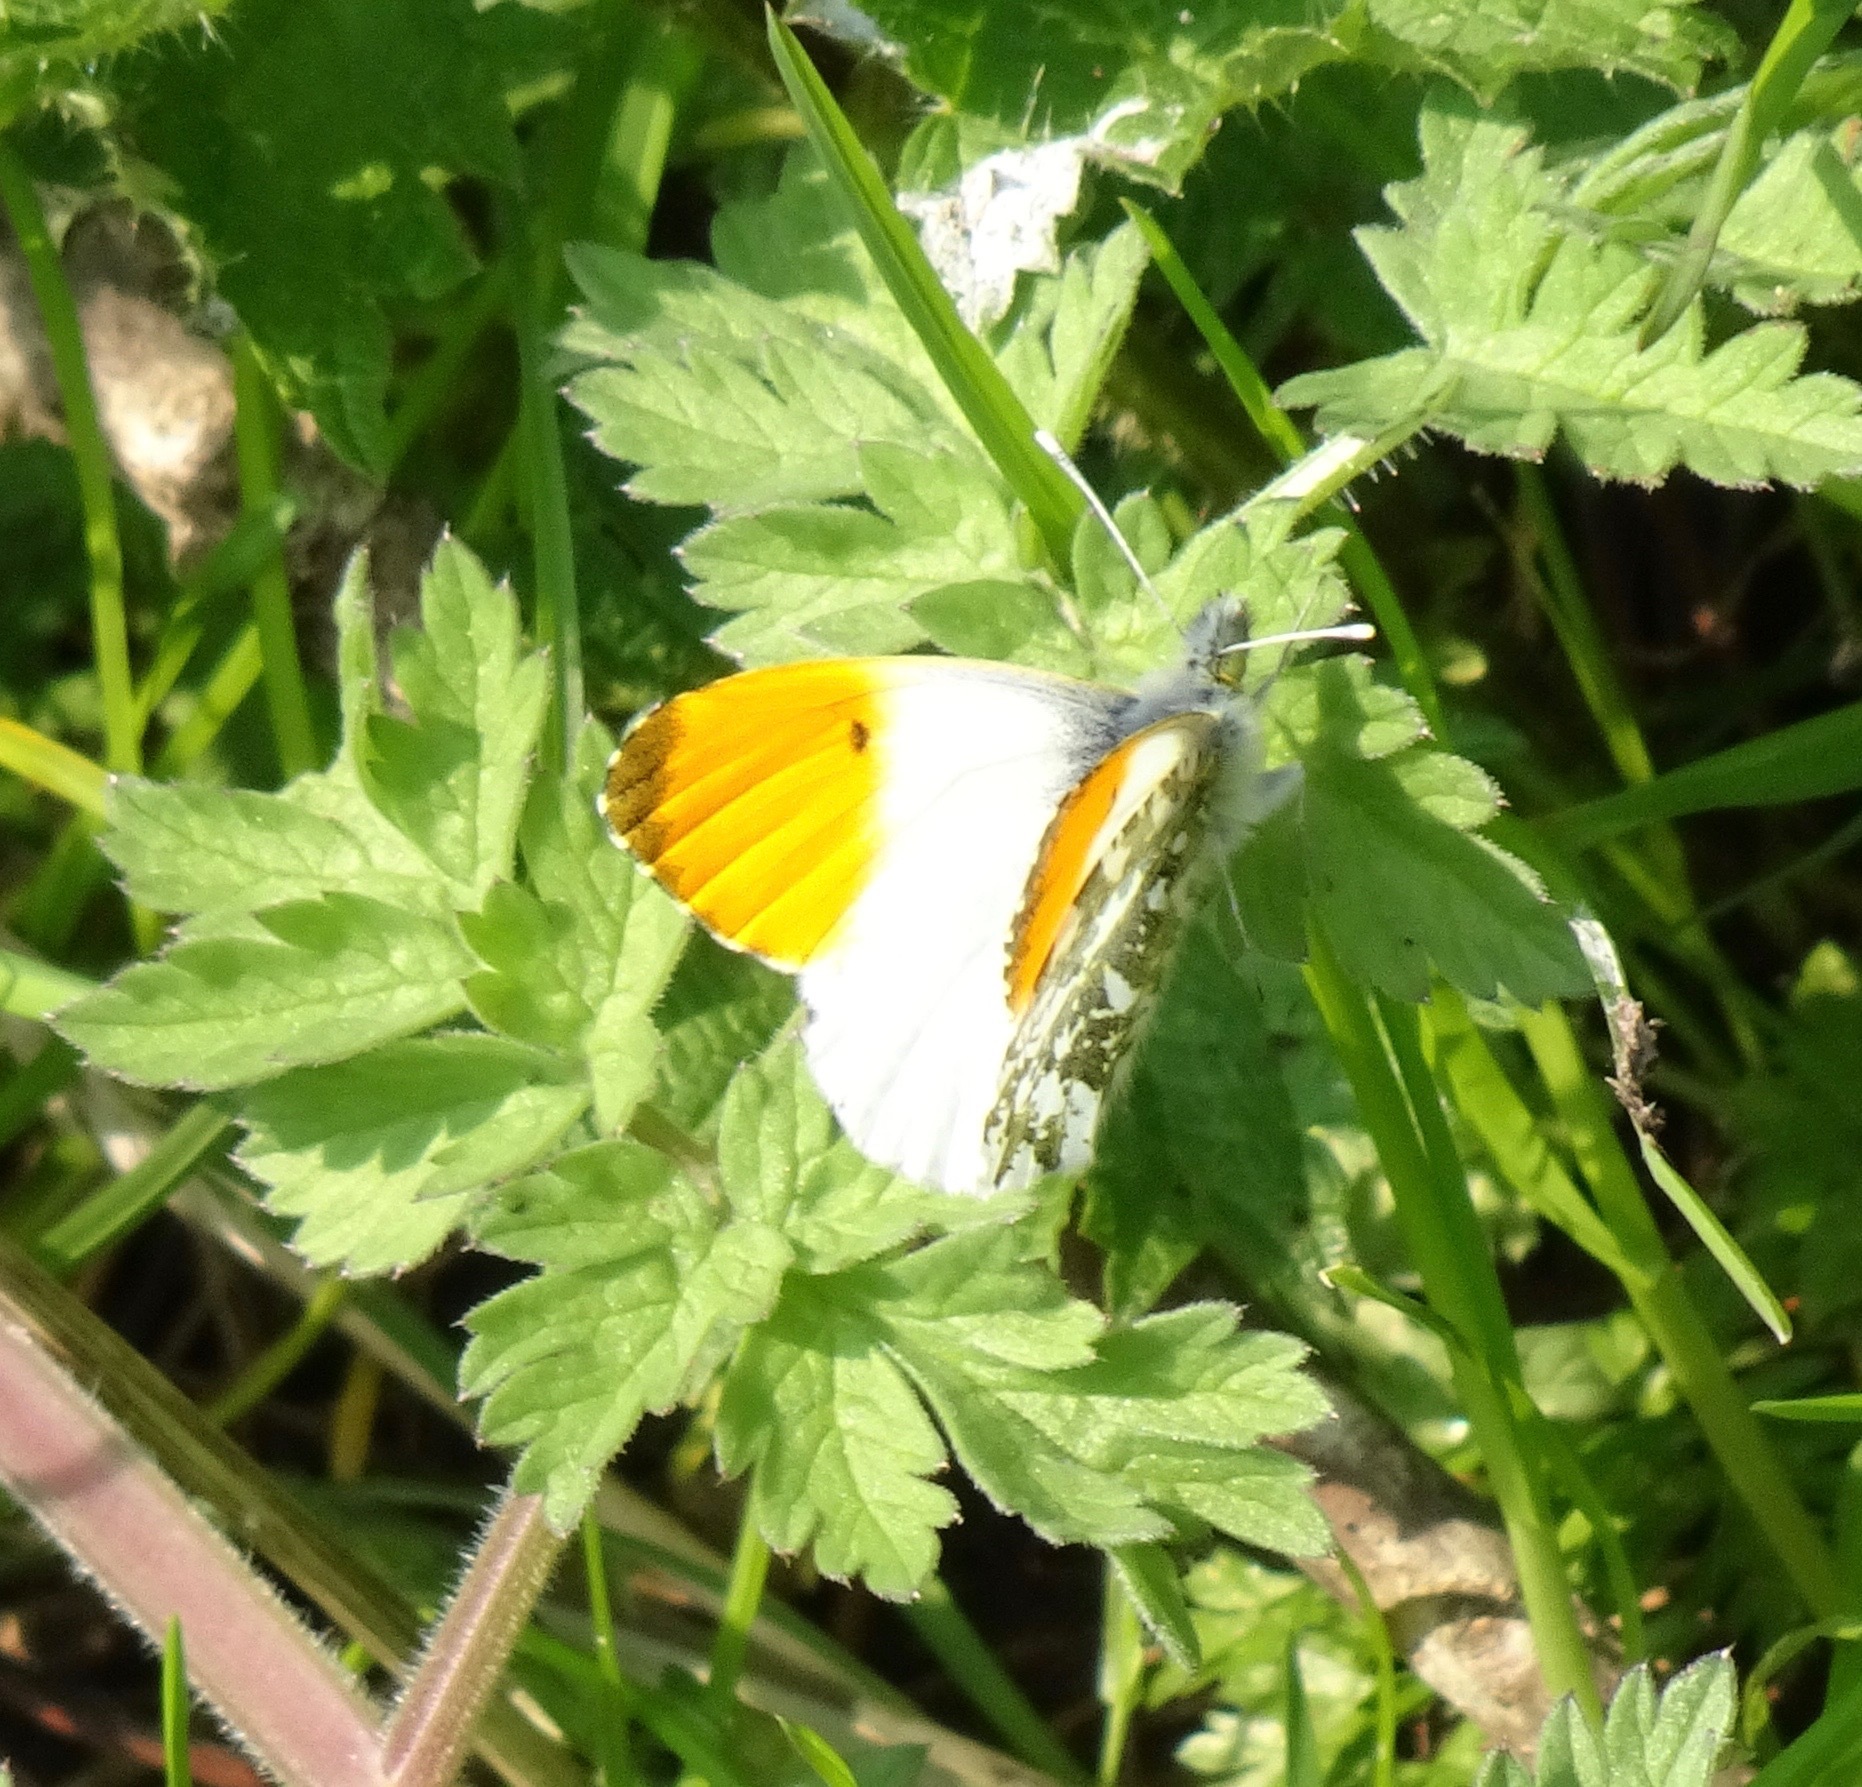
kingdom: Animalia
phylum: Arthropoda
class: Insecta
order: Lepidoptera
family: Pieridae
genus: Anthocharis
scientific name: Anthocharis cardamines
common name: Orange-tip
